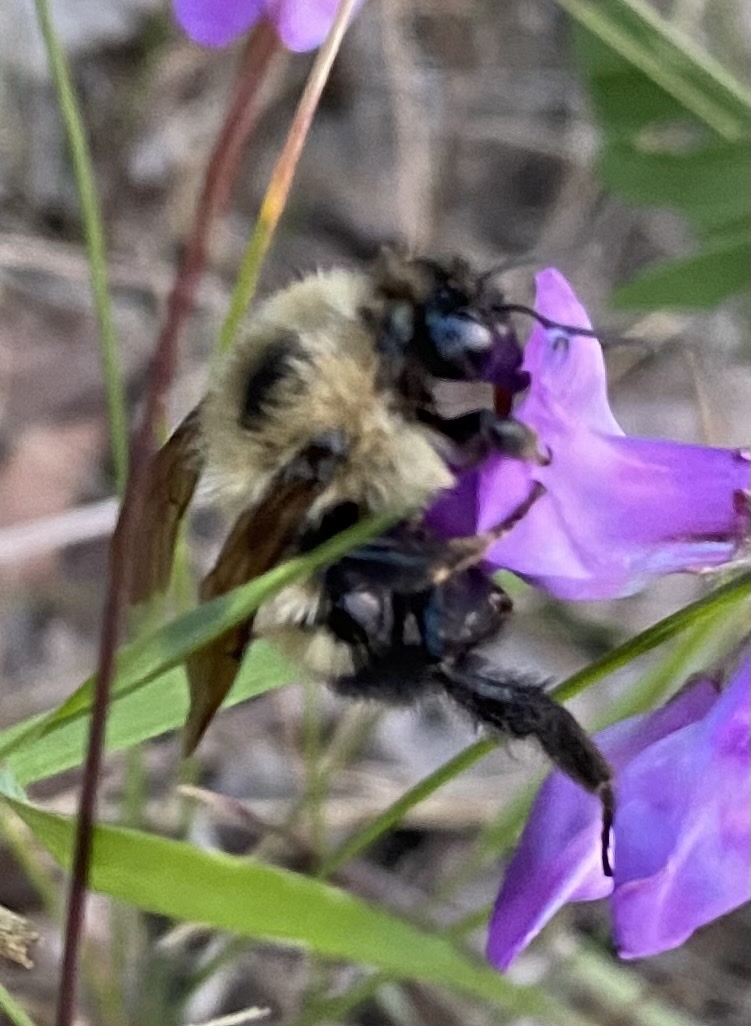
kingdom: Animalia
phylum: Arthropoda
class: Insecta
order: Hymenoptera
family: Apidae
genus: Bombus
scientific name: Bombus vagans
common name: Half-black bumble bee
